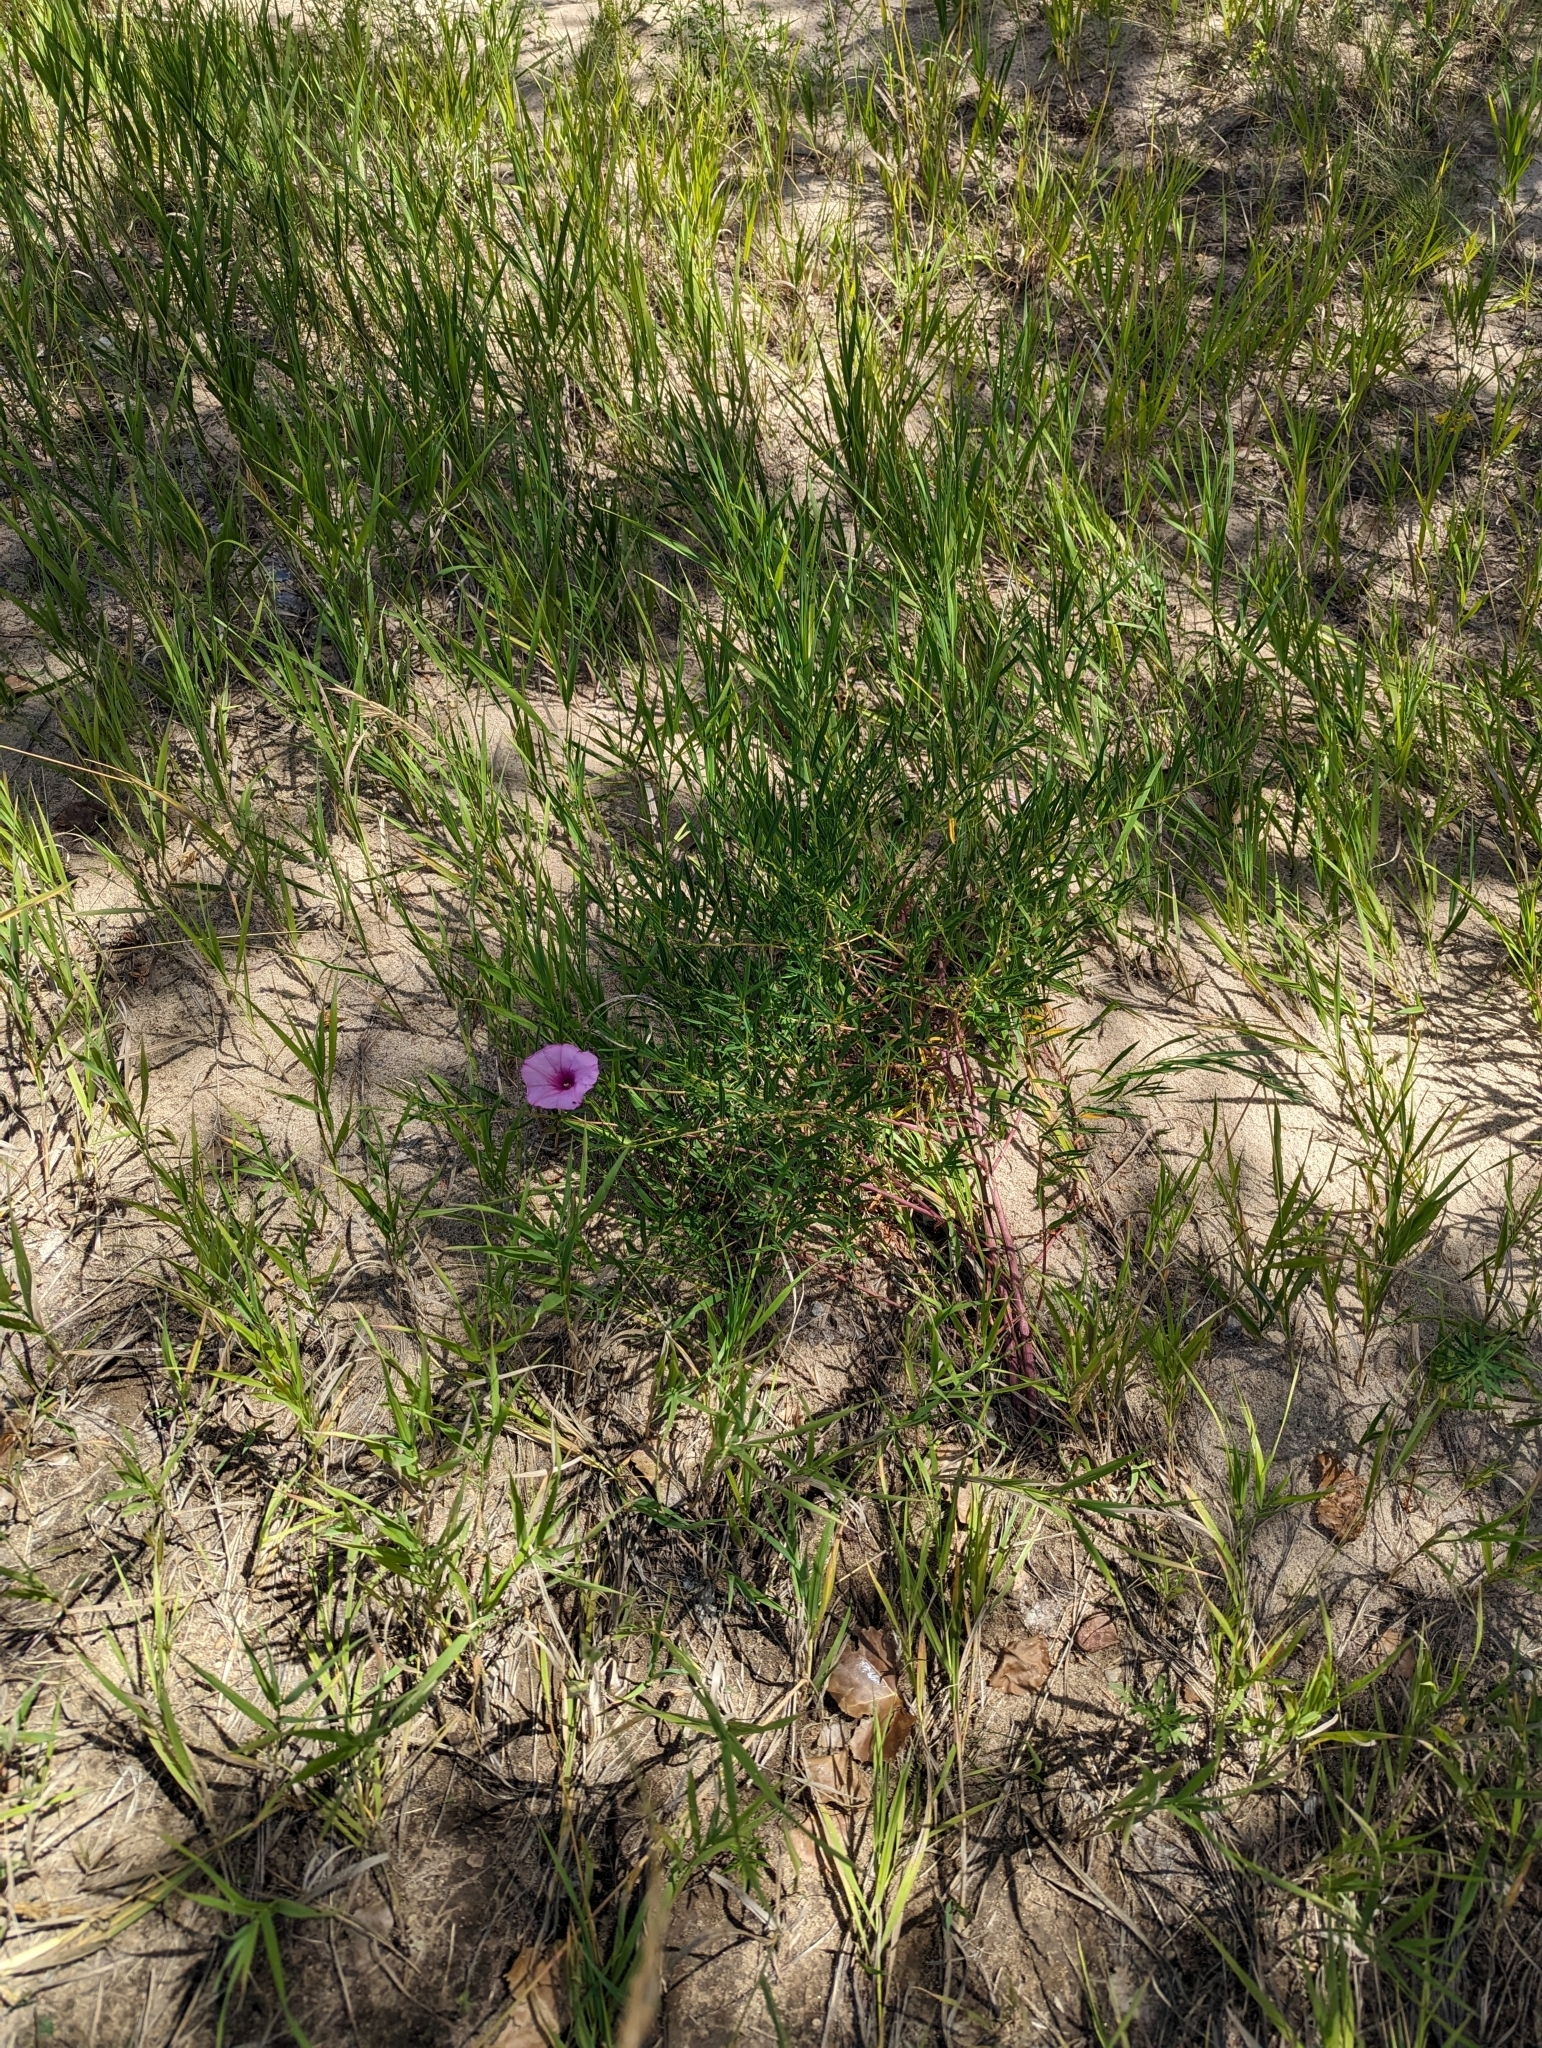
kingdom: Plantae
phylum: Tracheophyta
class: Magnoliopsida
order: Solanales
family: Convolvulaceae
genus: Ipomoea
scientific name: Ipomoea leptophylla
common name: Bush moonflower
